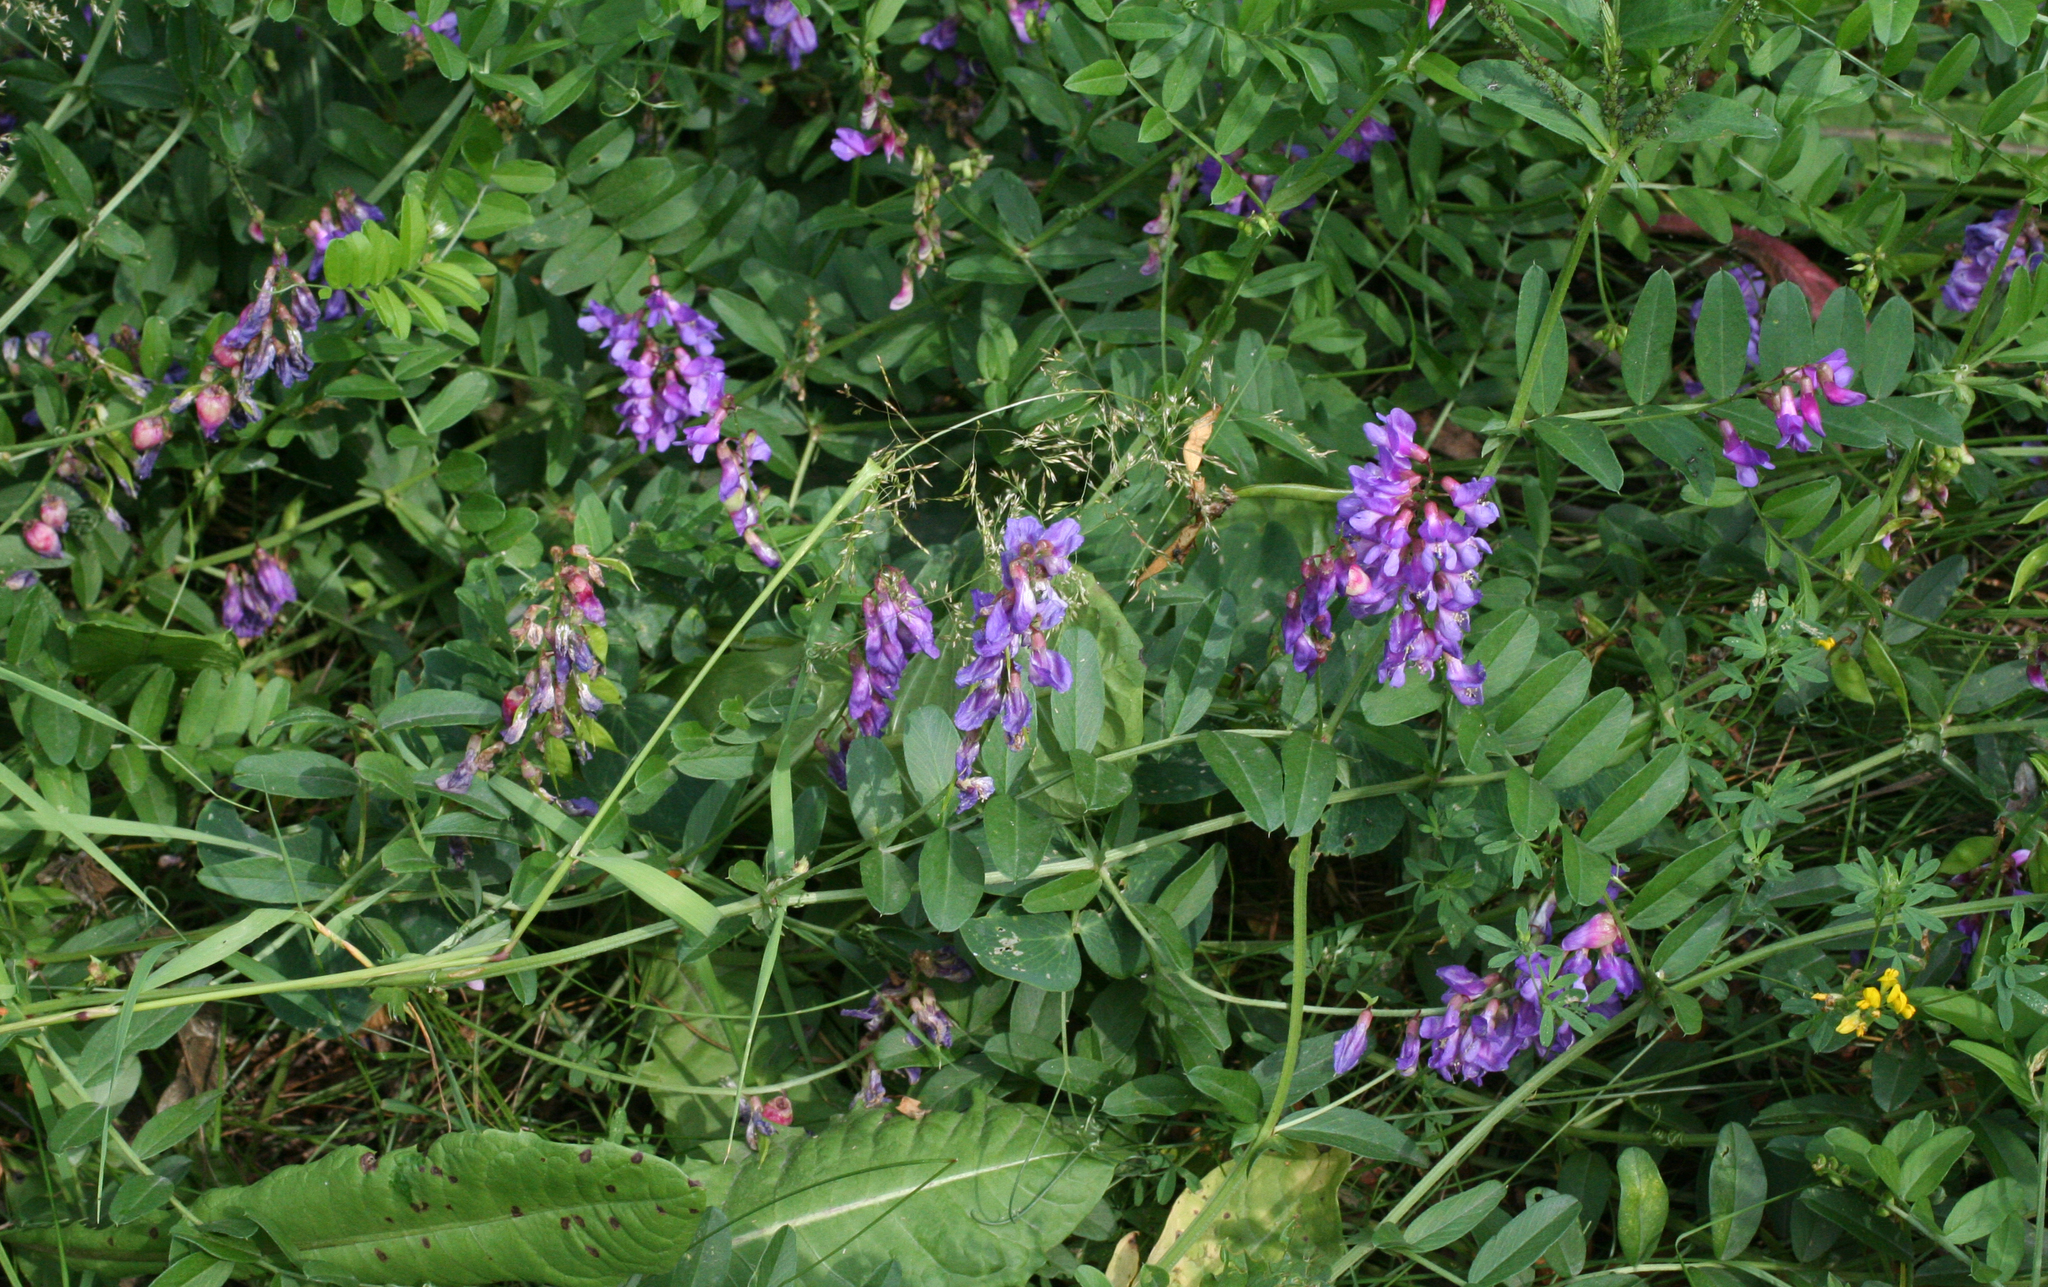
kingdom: Plantae
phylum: Tracheophyta
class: Magnoliopsida
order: Fabales
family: Fabaceae
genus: Vicia
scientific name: Vicia amoena
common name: Cheder ebs
